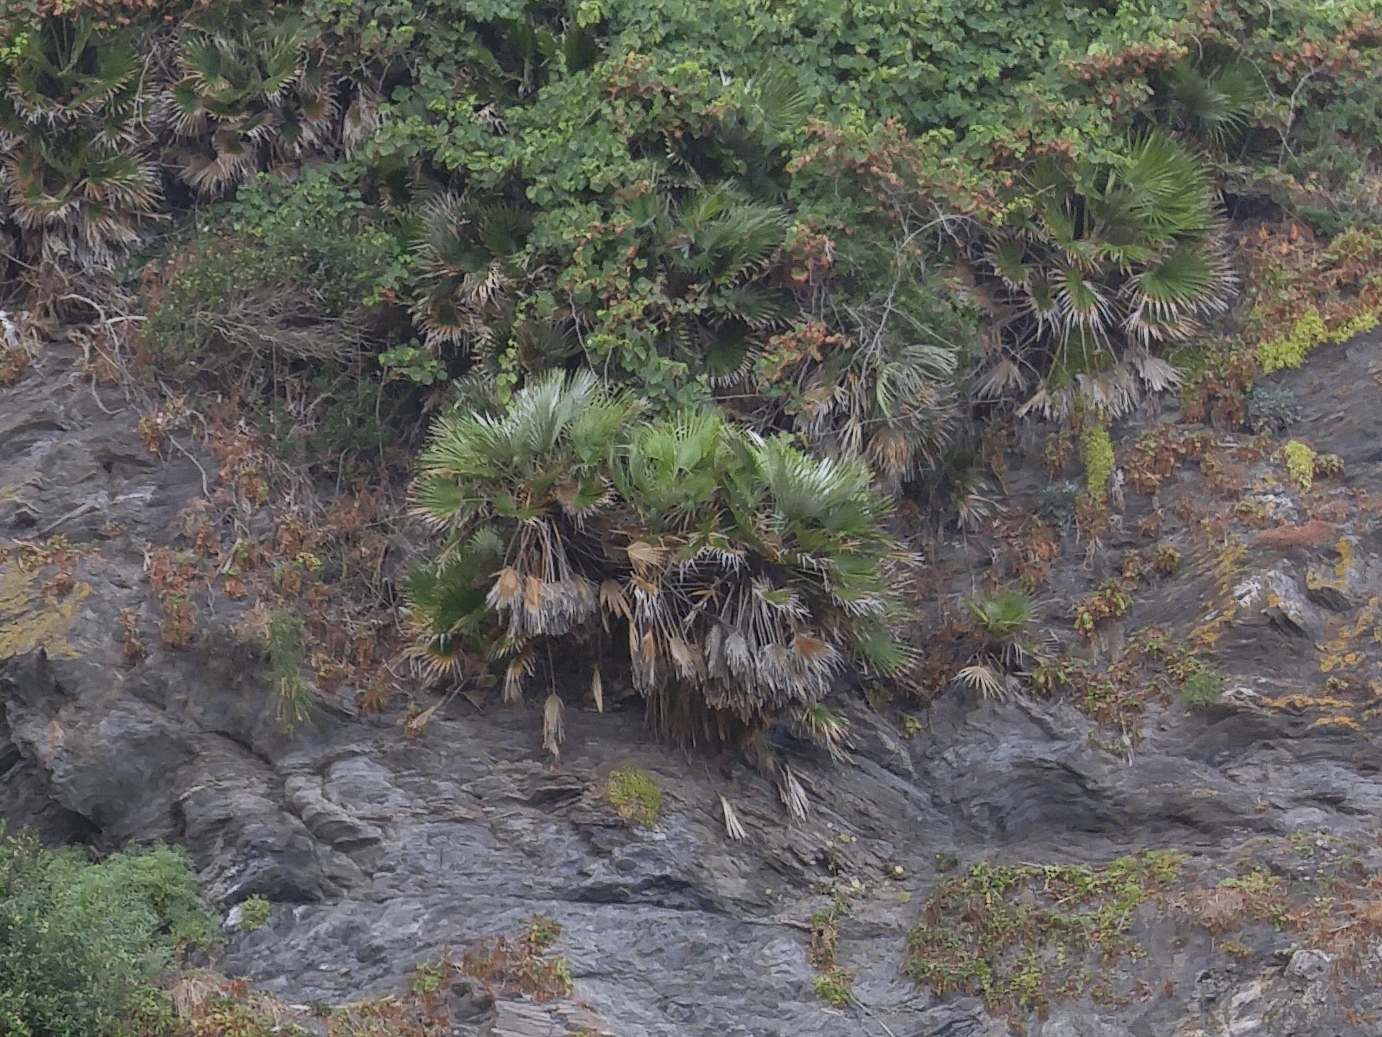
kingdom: Plantae
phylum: Tracheophyta
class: Liliopsida
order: Arecales
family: Arecaceae
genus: Chamaerops
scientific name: Chamaerops humilis
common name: Dwarf fan palm
